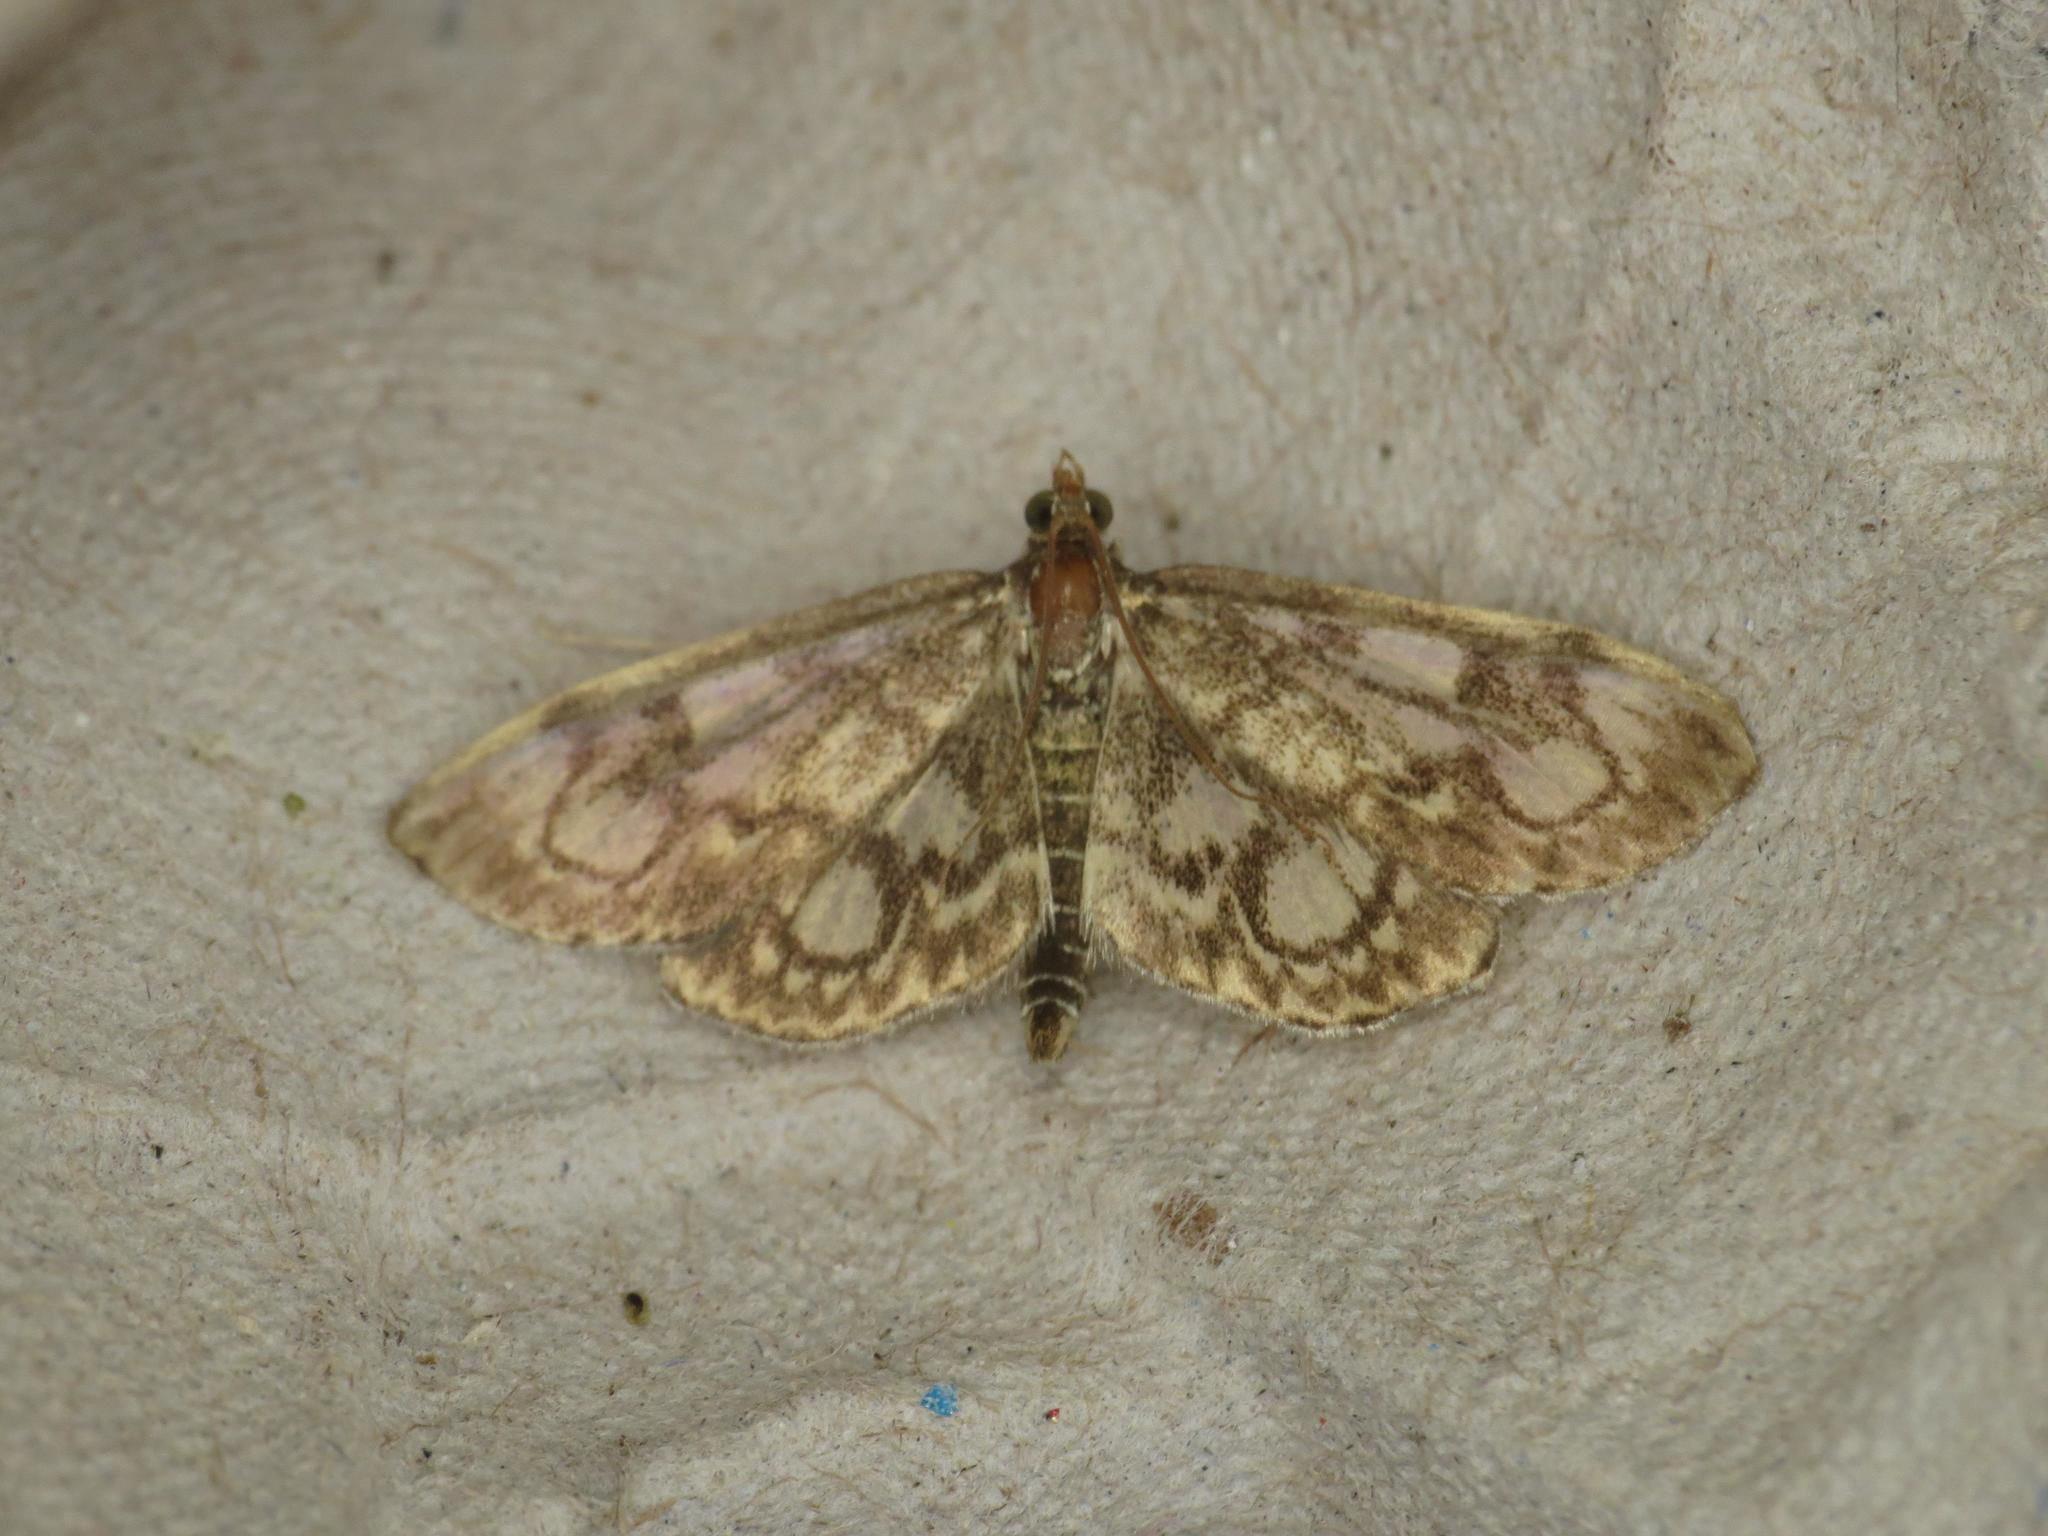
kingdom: Animalia
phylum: Arthropoda
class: Insecta
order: Lepidoptera
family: Crambidae
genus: Anania
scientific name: Anania coronata
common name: Elder pearl
